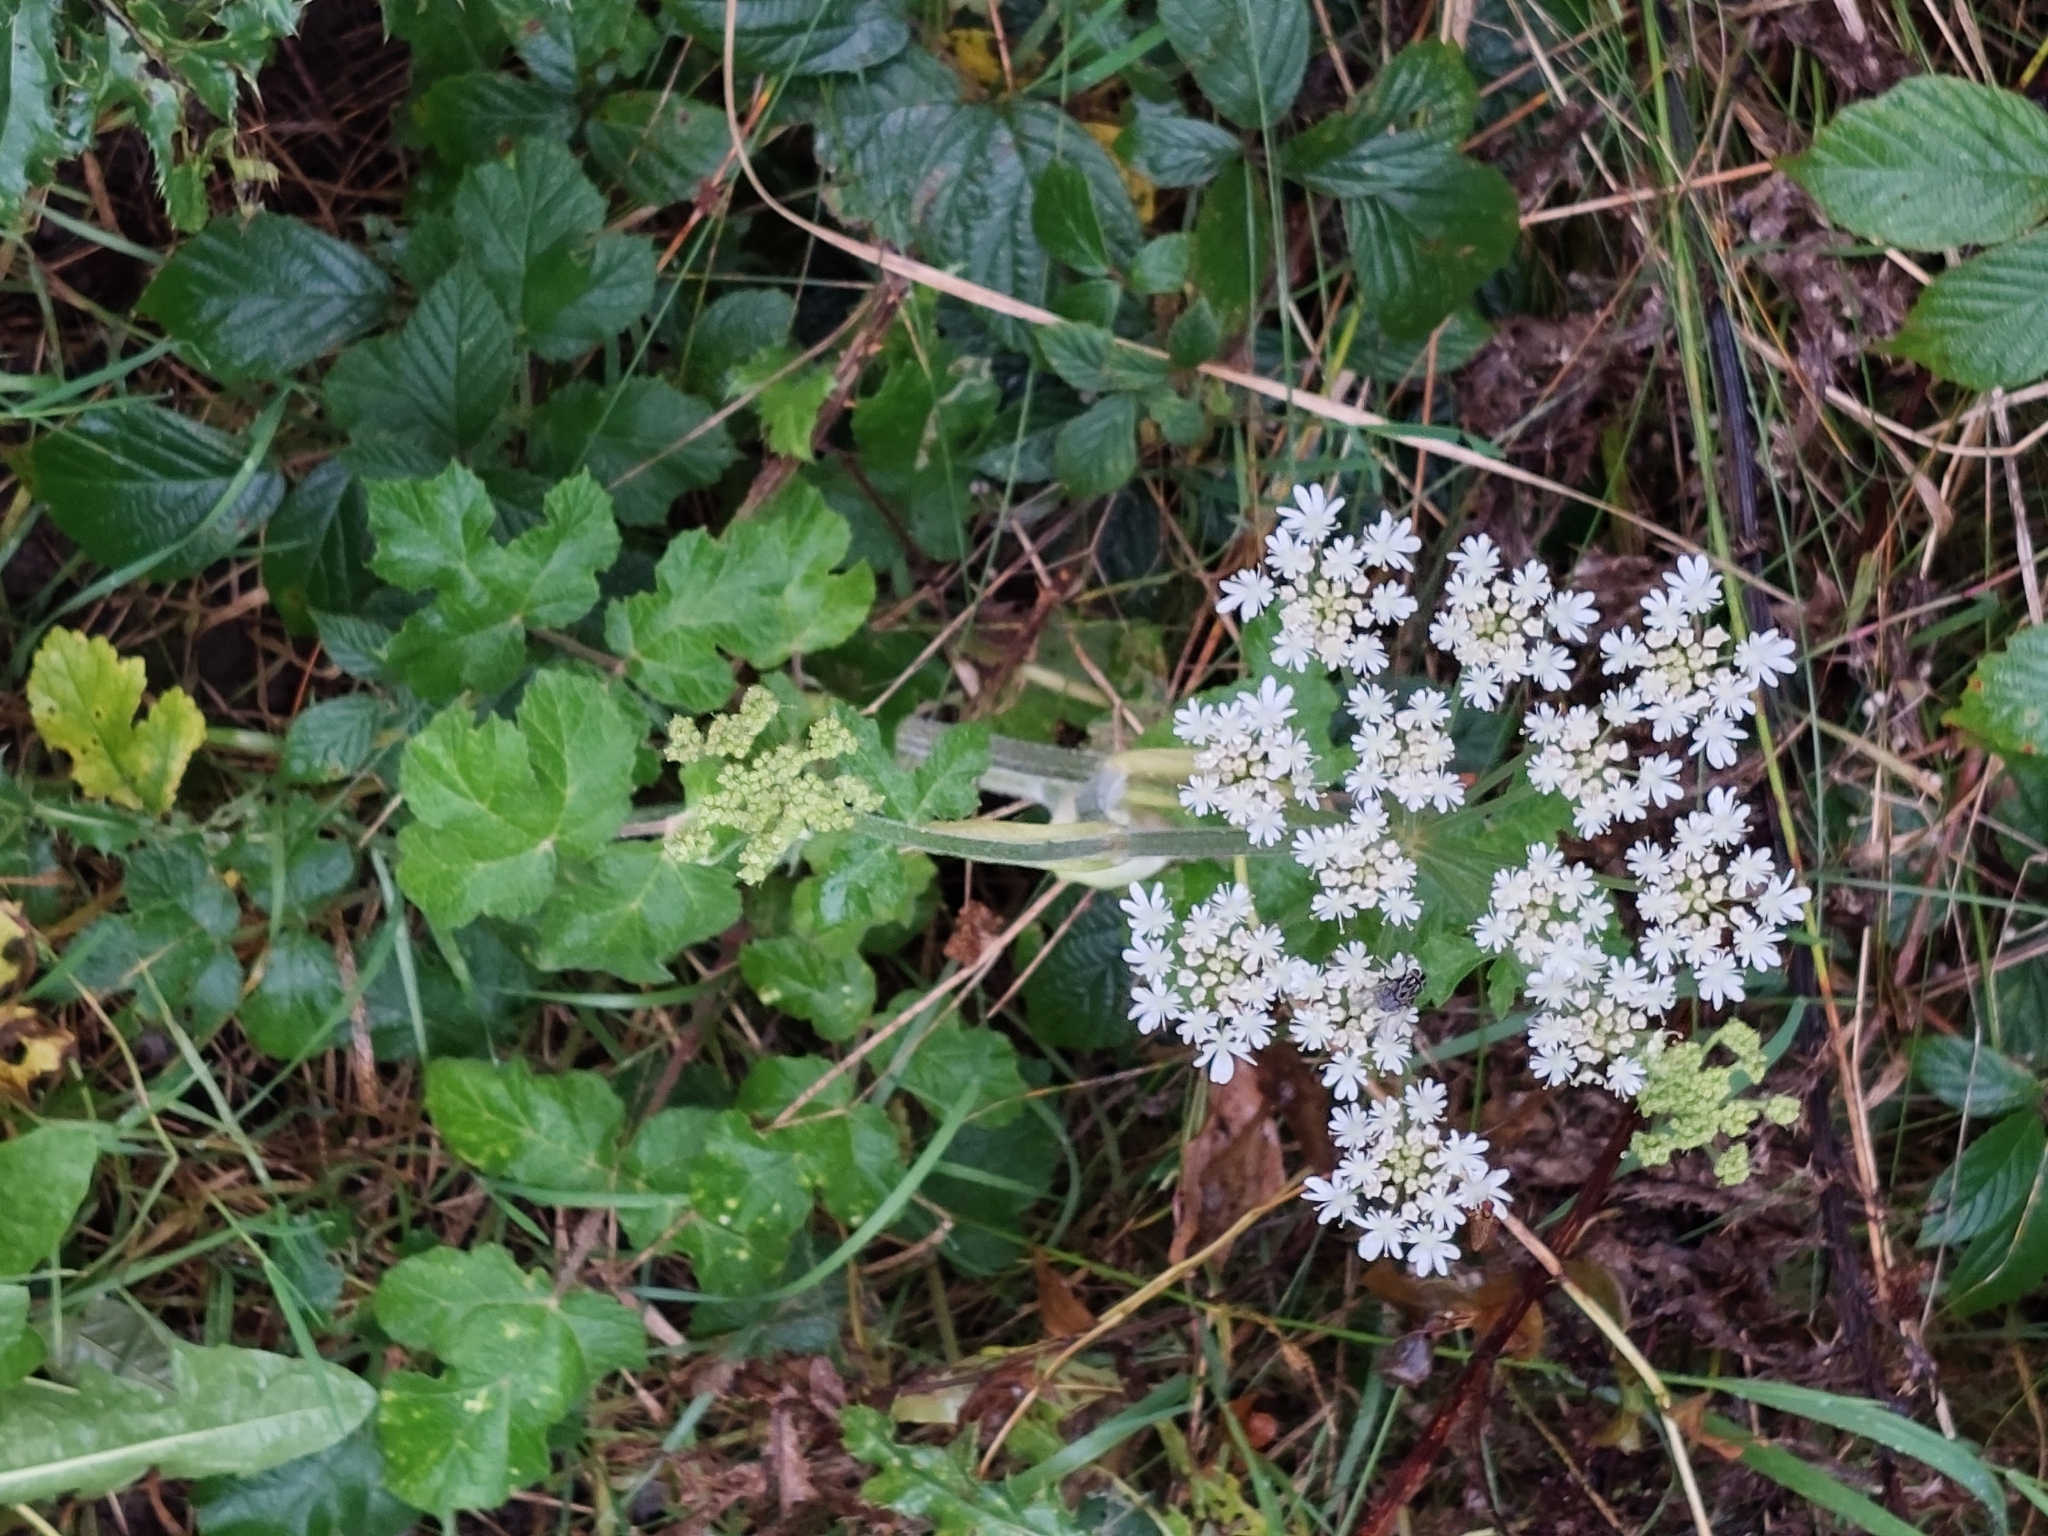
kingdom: Plantae
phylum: Tracheophyta
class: Magnoliopsida
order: Apiales
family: Apiaceae
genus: Heracleum
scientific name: Heracleum sphondylium
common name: Hogweed
